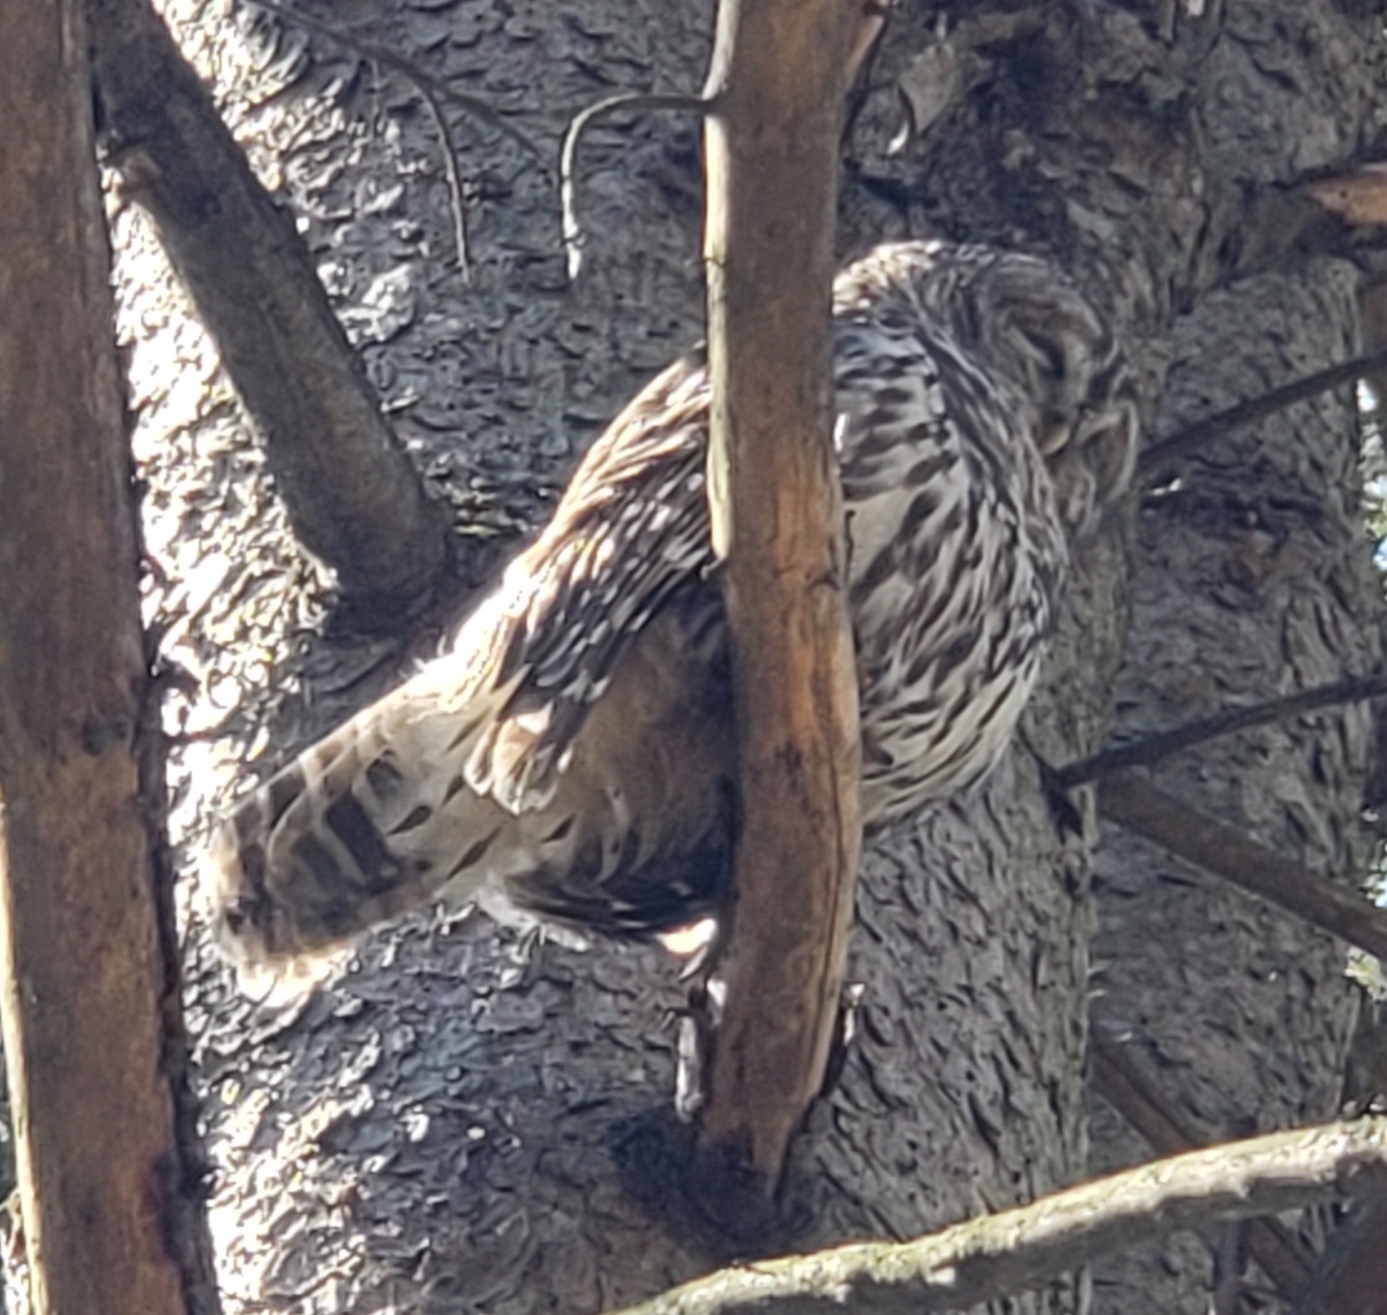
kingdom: Animalia
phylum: Chordata
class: Aves
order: Strigiformes
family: Strigidae
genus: Strix
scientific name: Strix varia
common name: Barred owl
